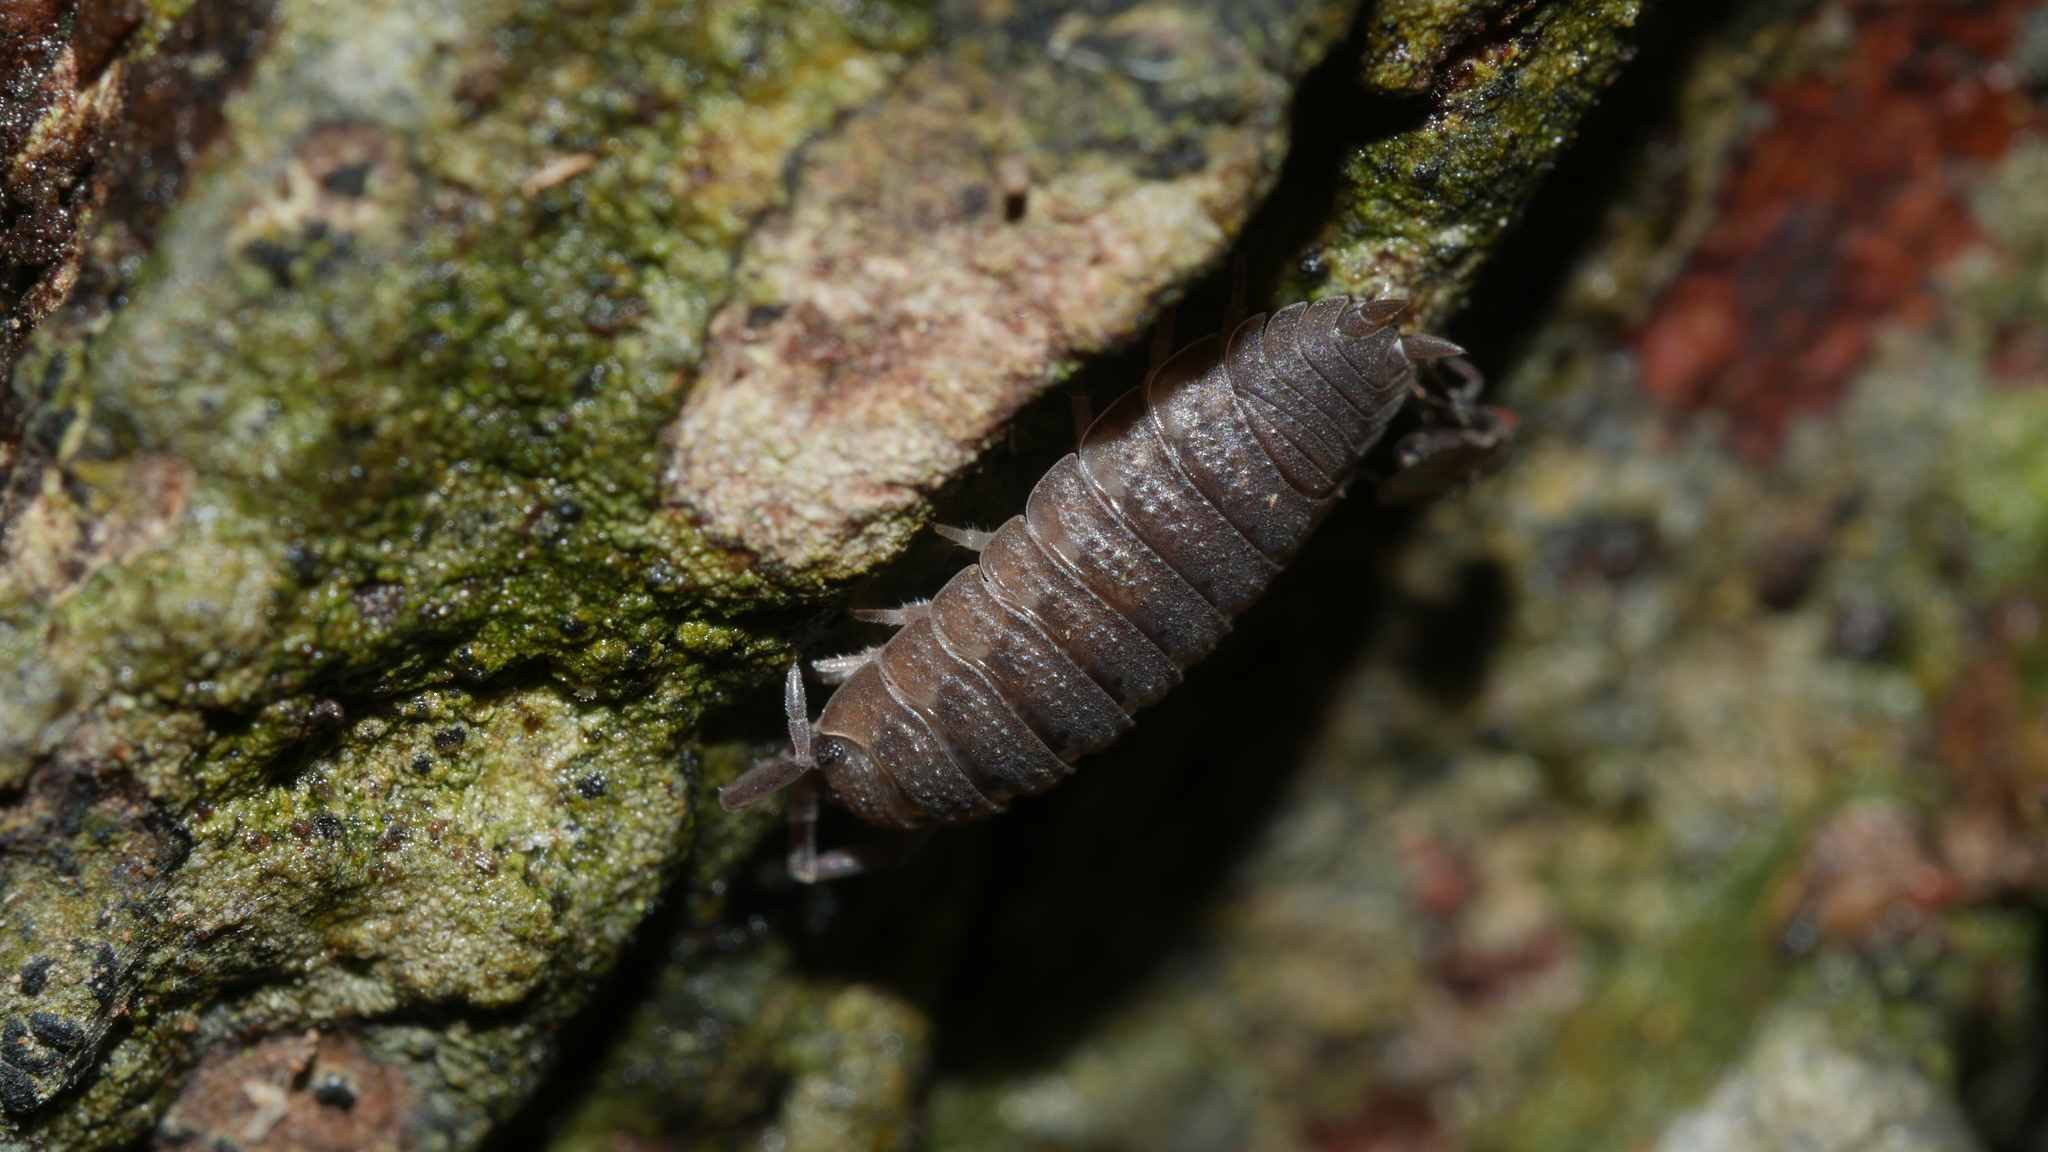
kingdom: Animalia
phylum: Arthropoda
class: Malacostraca
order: Isopoda
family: Porcellionidae
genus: Porcellio
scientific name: Porcellio scaber
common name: Common rough woodlouse
